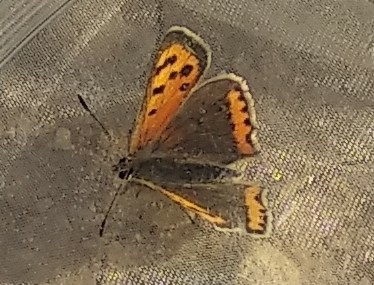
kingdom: Animalia
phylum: Arthropoda
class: Insecta
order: Lepidoptera
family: Lycaenidae
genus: Lycaena
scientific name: Lycaena phlaeas
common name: Small copper
